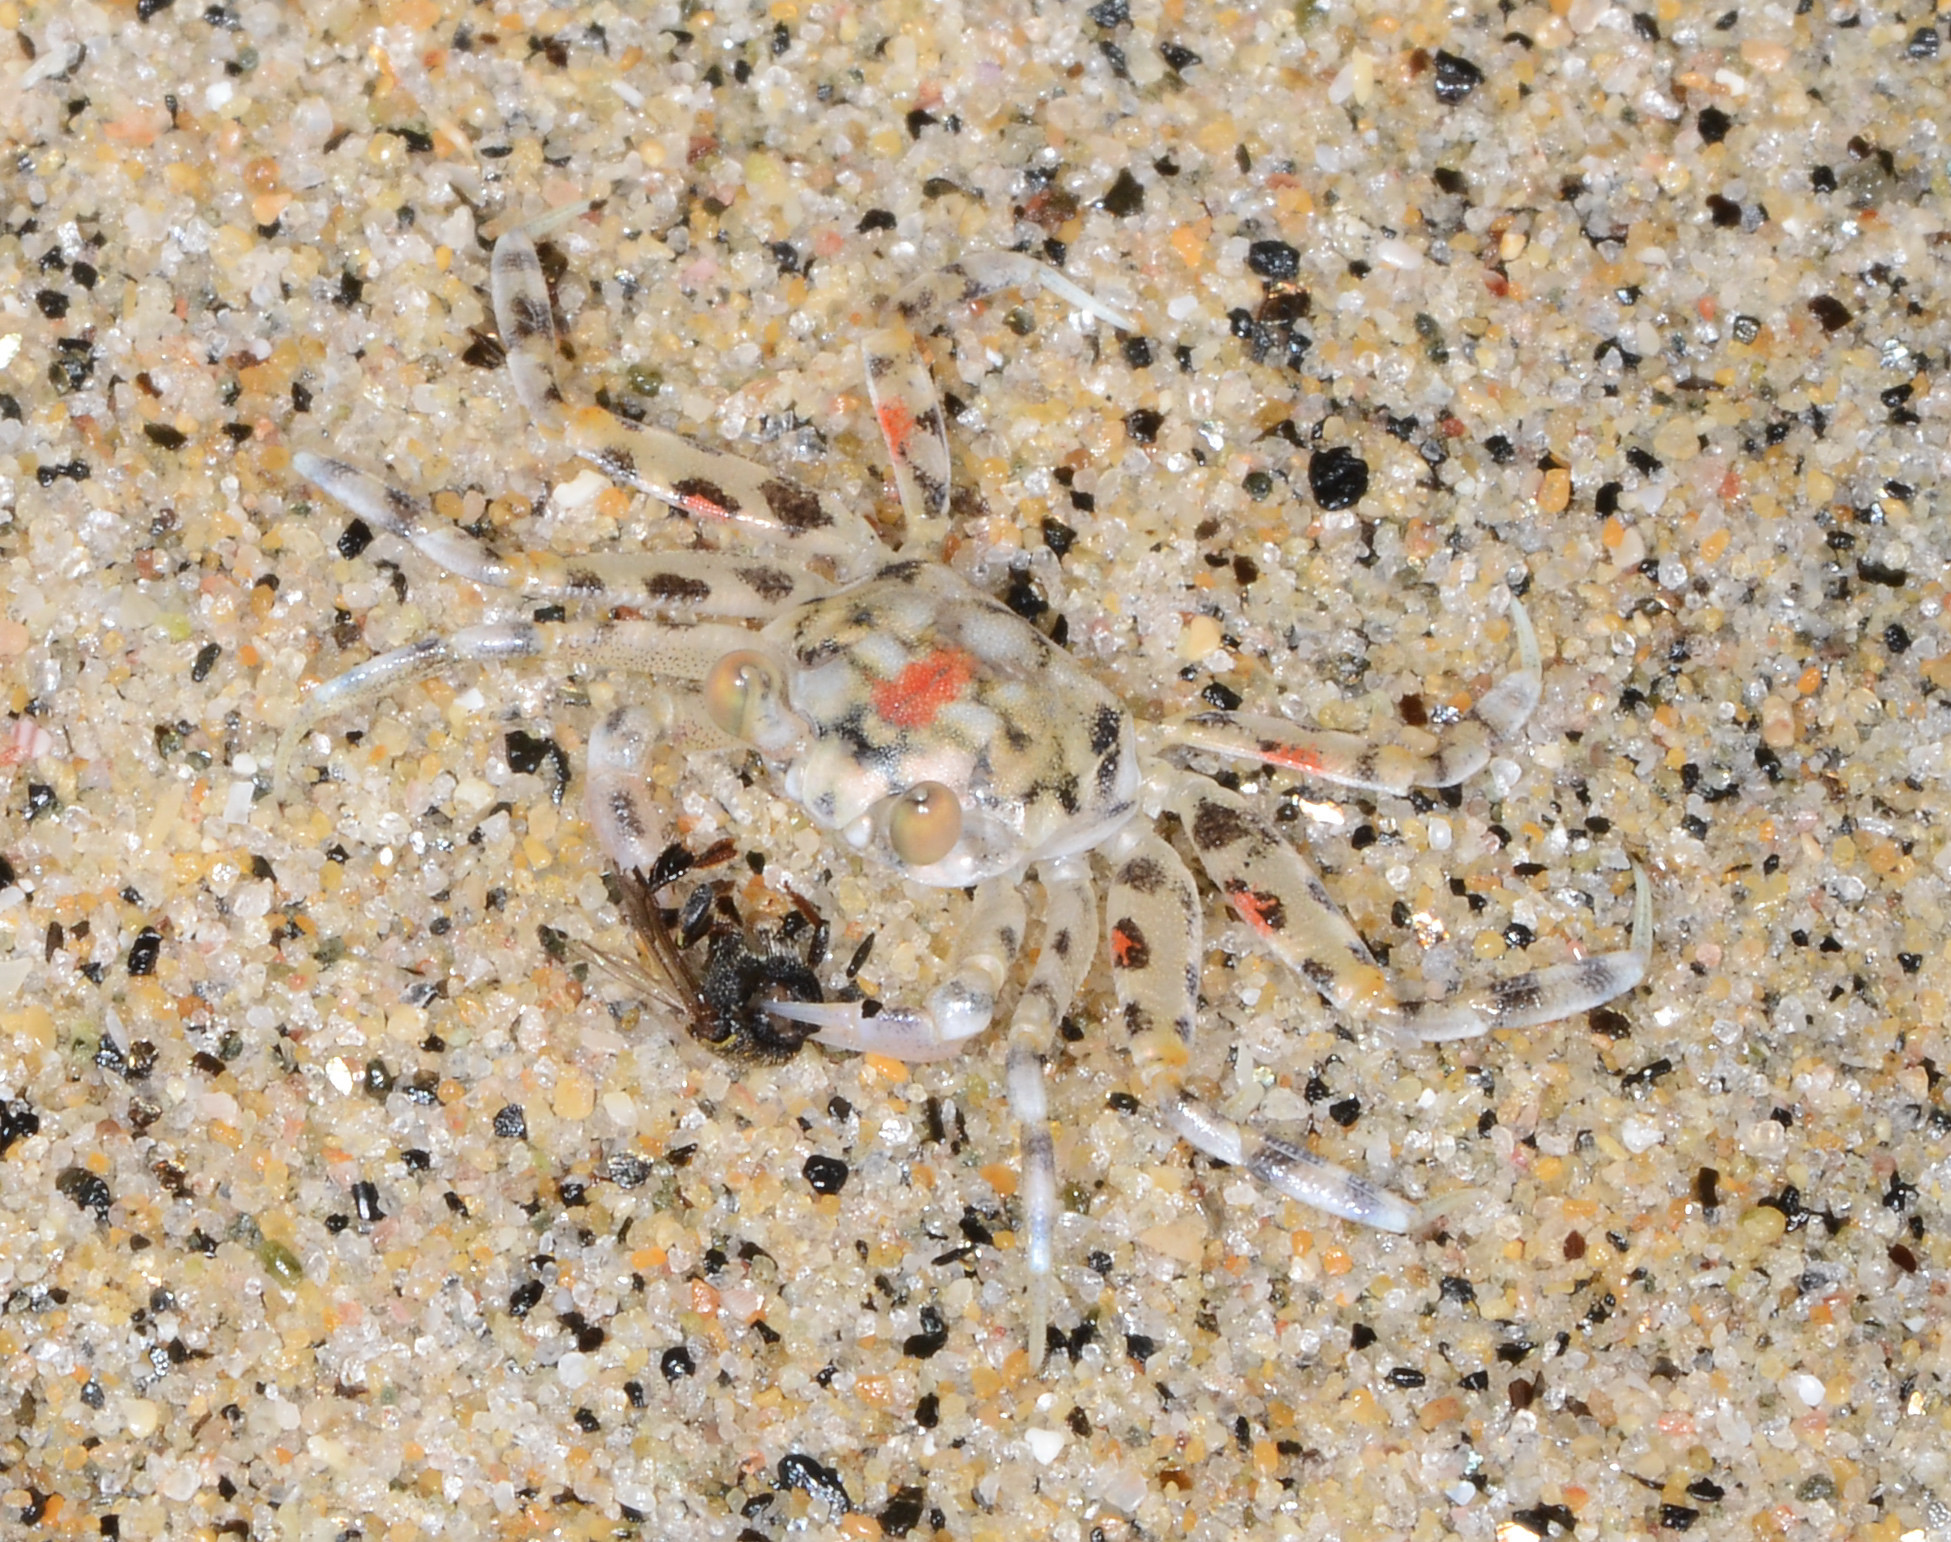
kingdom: Animalia
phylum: Arthropoda
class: Malacostraca
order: Decapoda
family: Ocypodidae
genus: Ocypode
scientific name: Ocypode occidentalis
